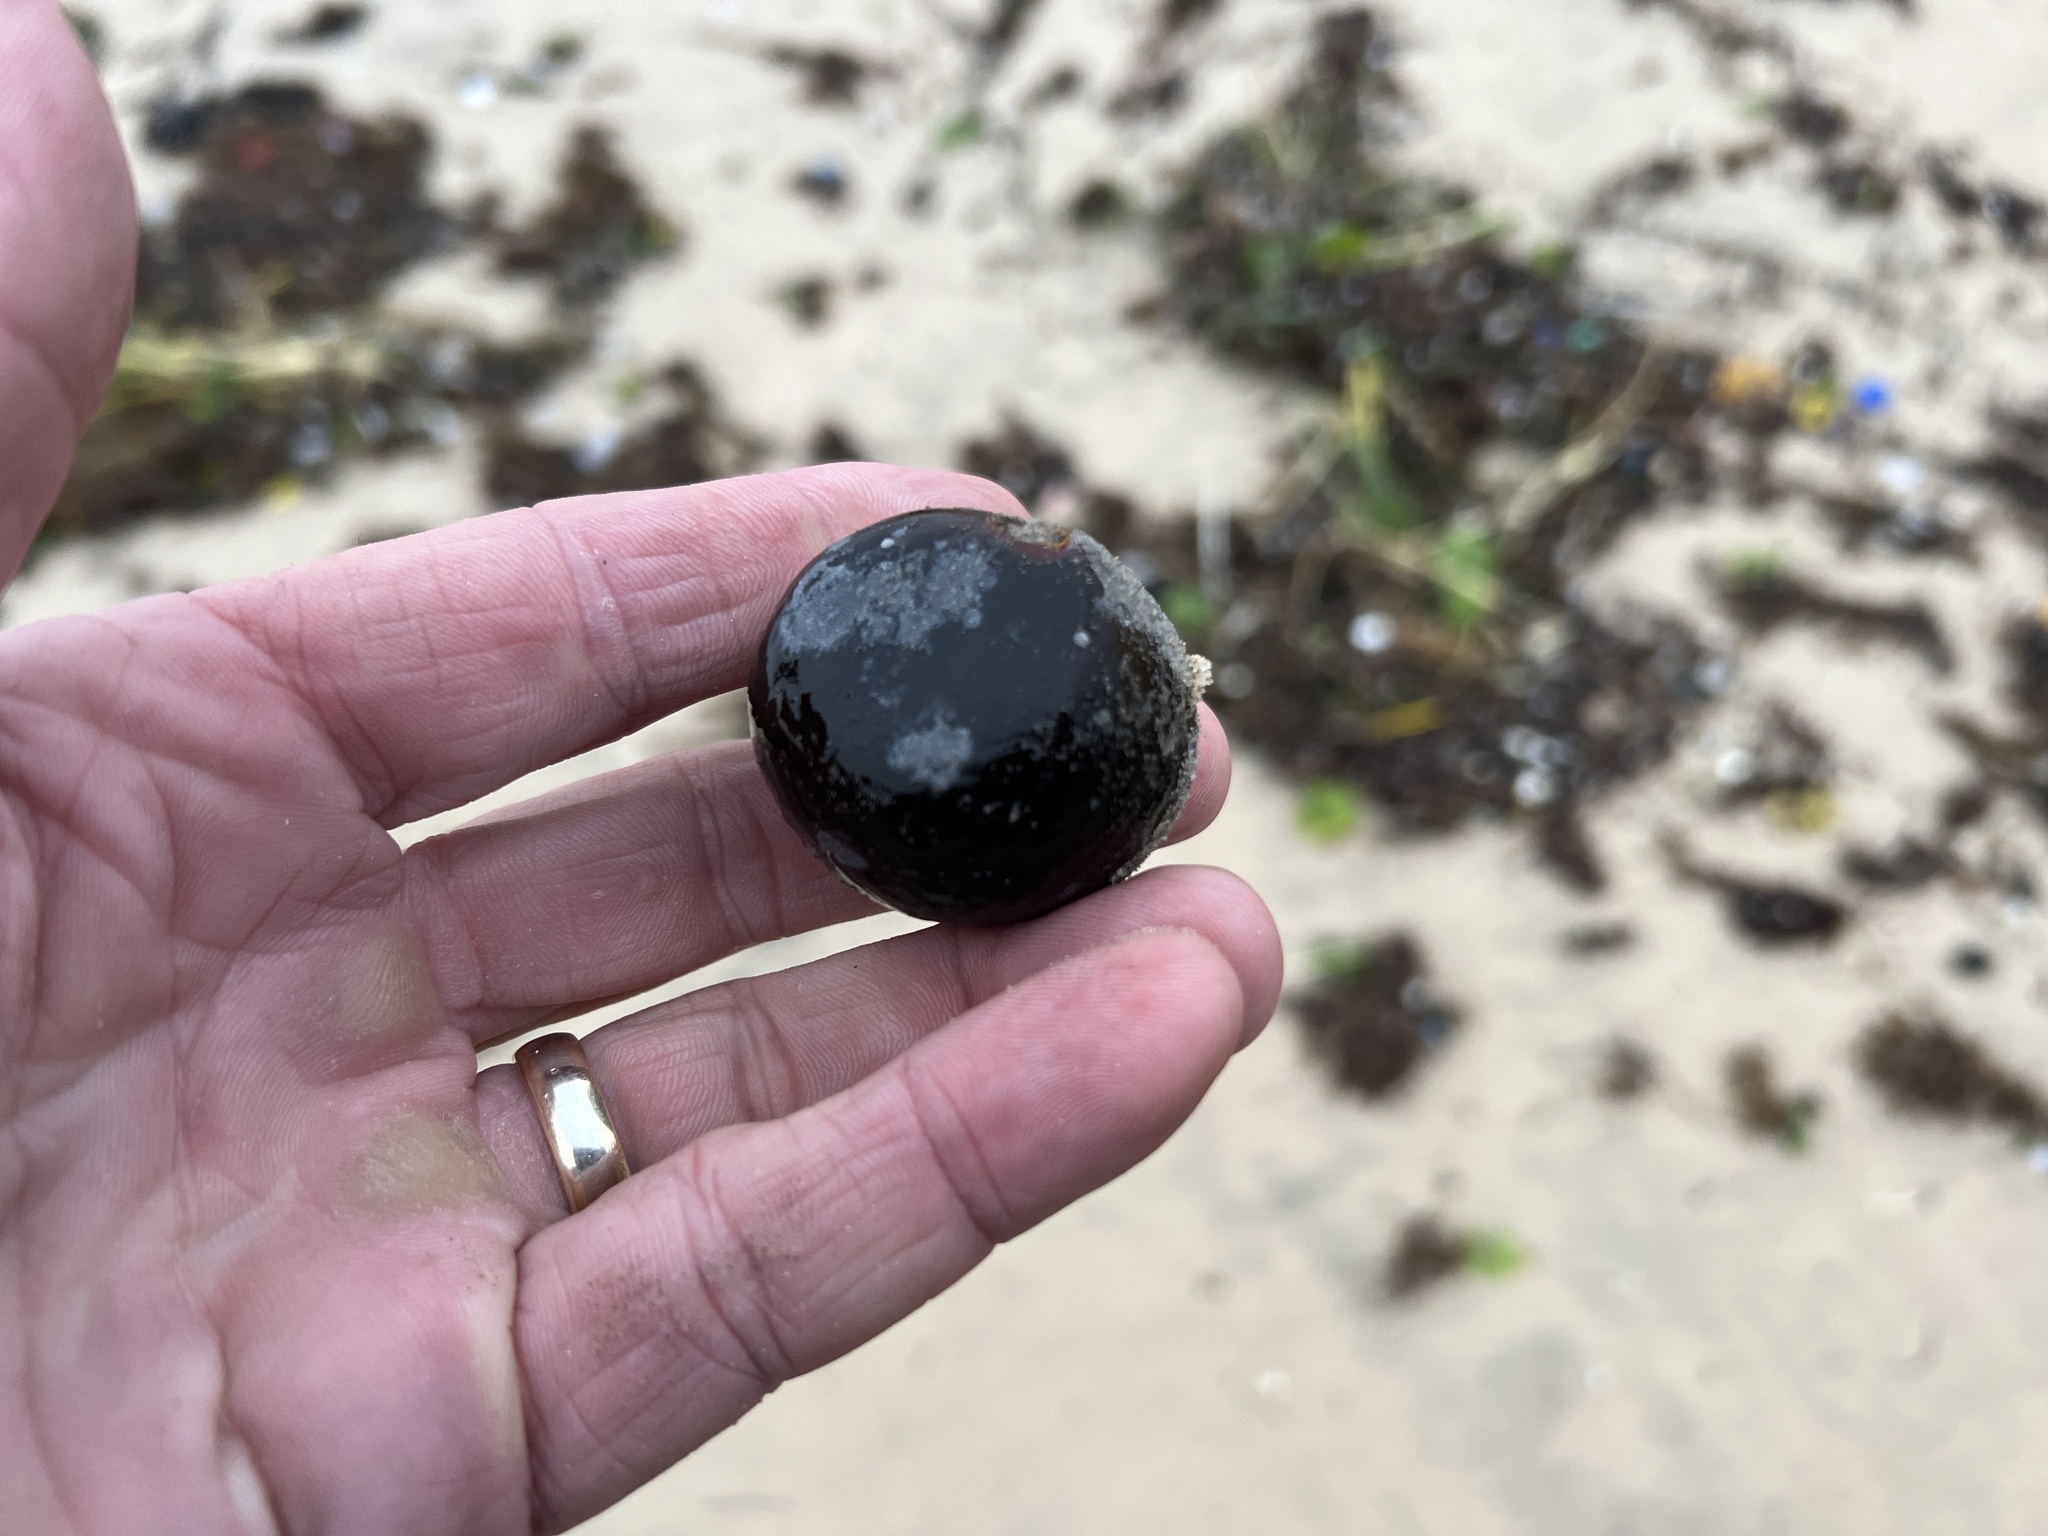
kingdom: Plantae
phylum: Tracheophyta
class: Liliopsida
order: Arecales
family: Arecaceae
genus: Manicaria
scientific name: Manicaria saccifera
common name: Sea coconut
